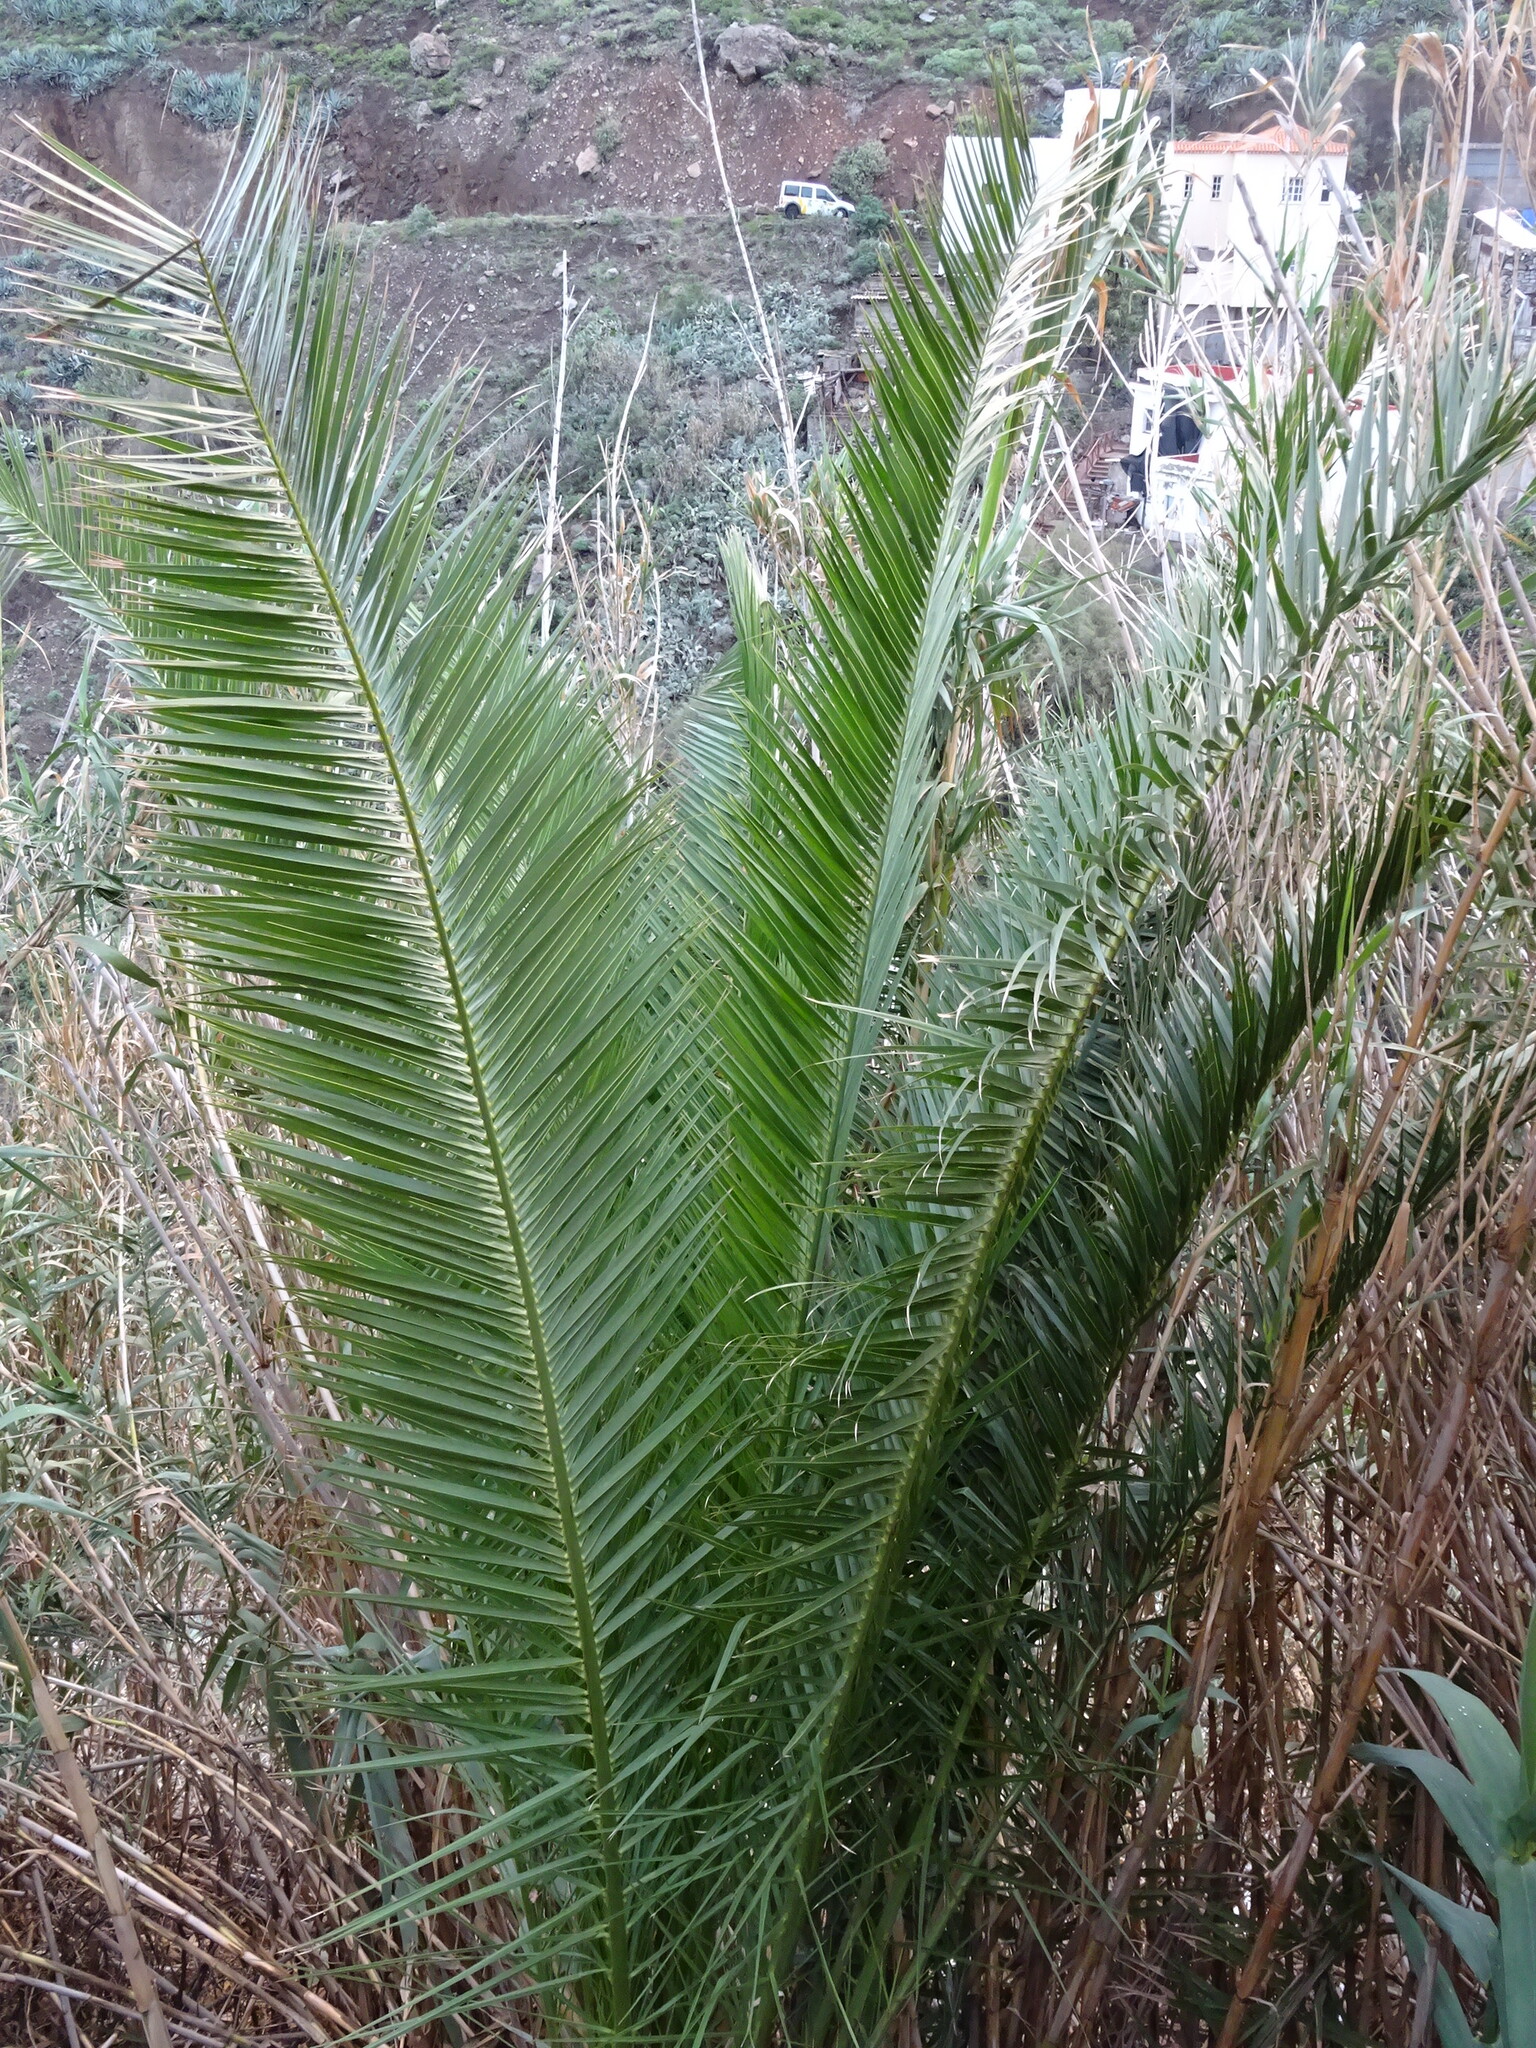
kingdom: Plantae
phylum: Tracheophyta
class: Liliopsida
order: Arecales
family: Arecaceae
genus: Phoenix
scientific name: Phoenix canariensis
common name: Canary island date palm
